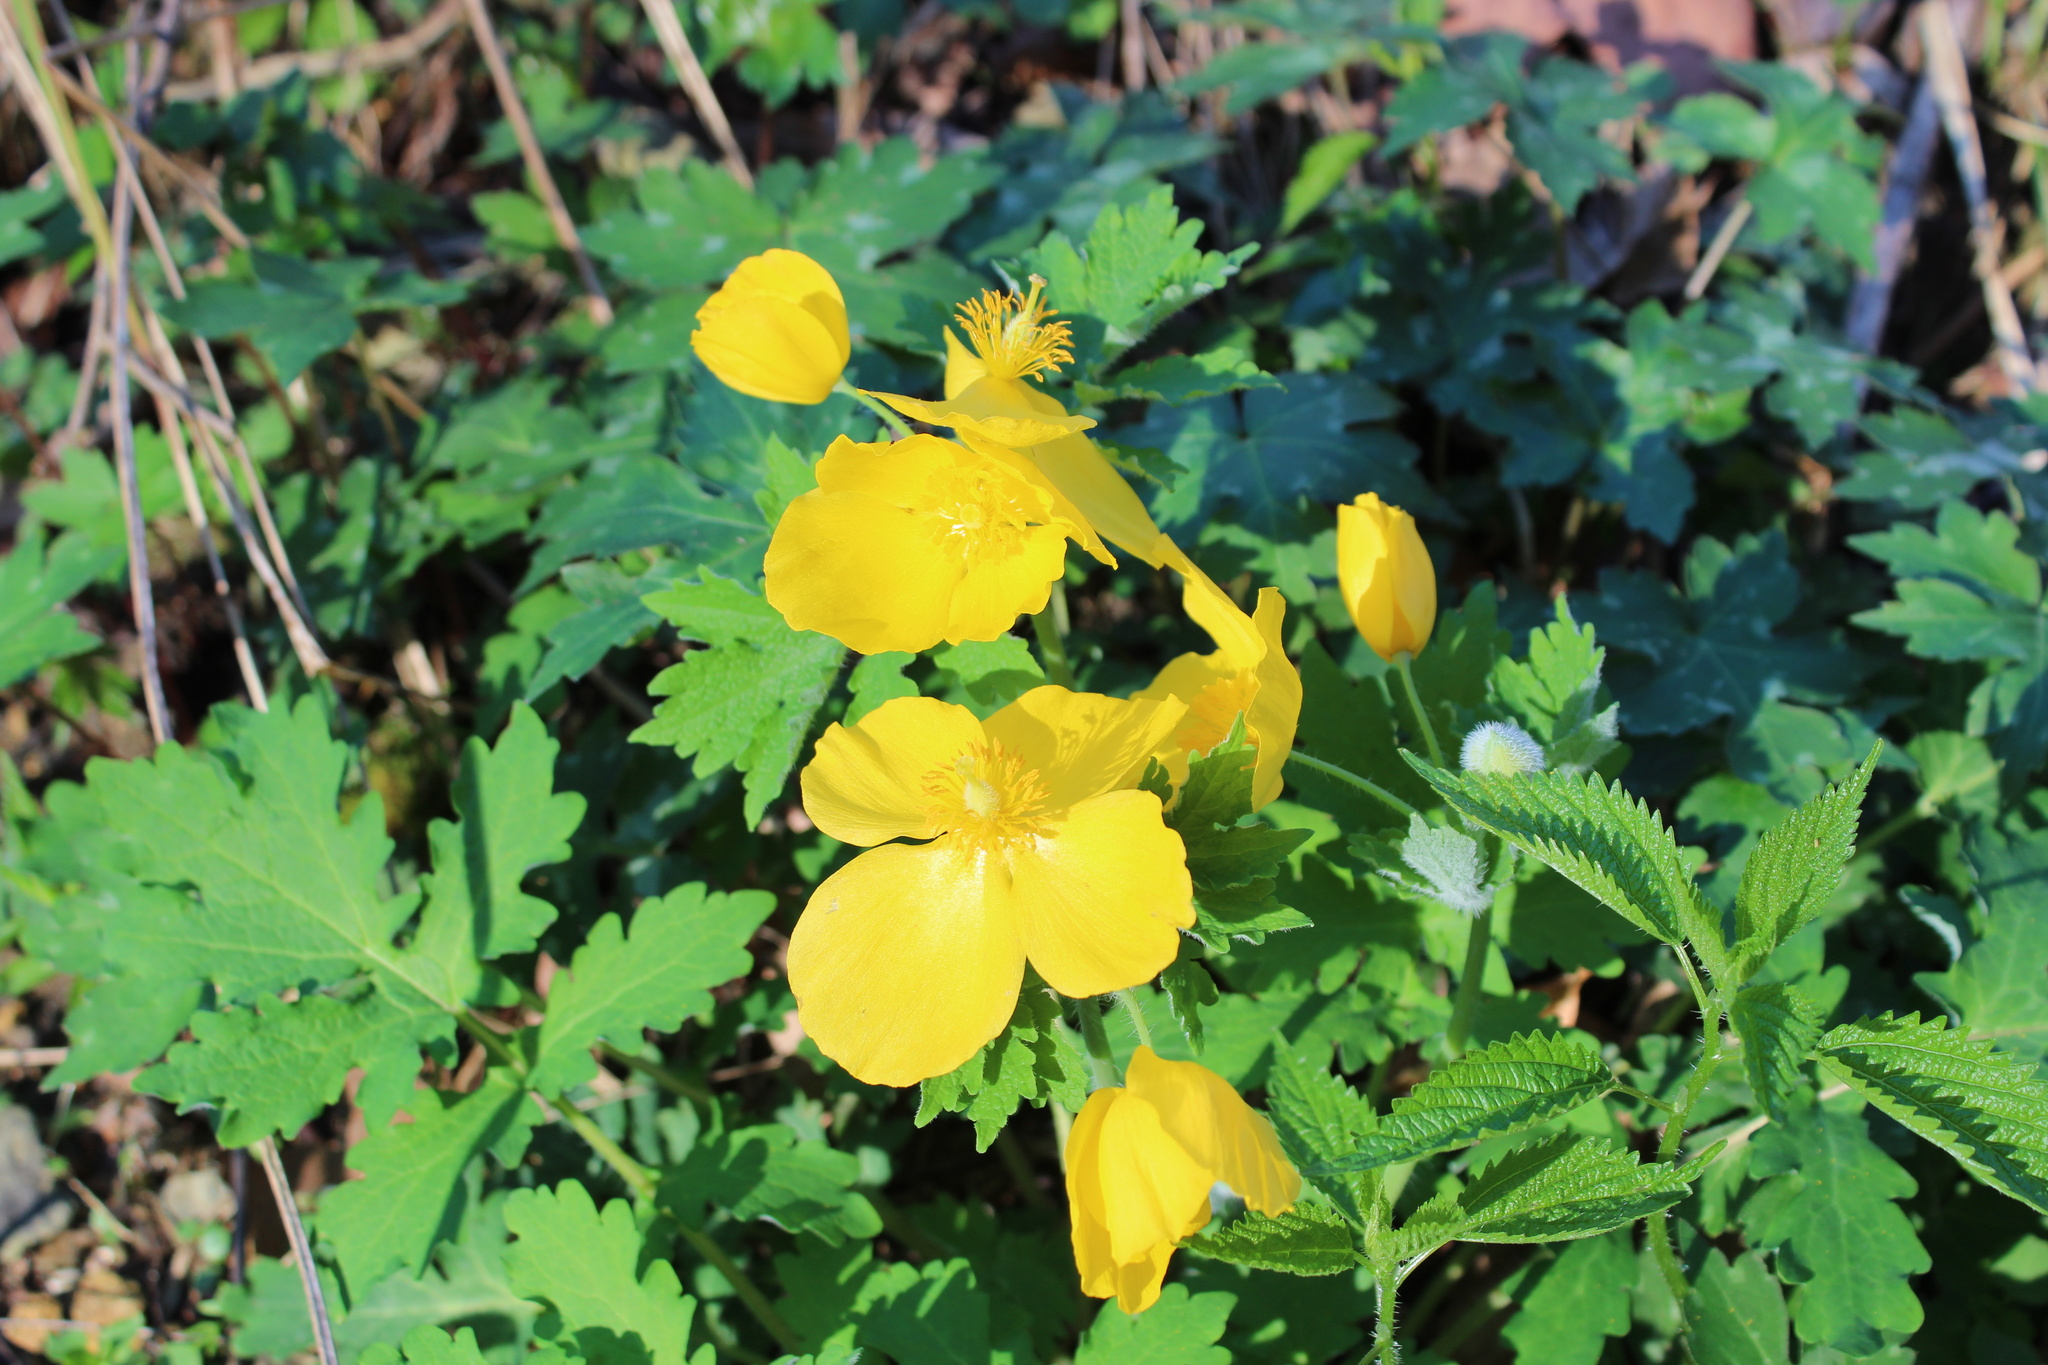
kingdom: Plantae
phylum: Tracheophyta
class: Magnoliopsida
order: Ranunculales
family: Papaveraceae
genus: Stylophorum
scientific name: Stylophorum diphyllum
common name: Celandine poppy
